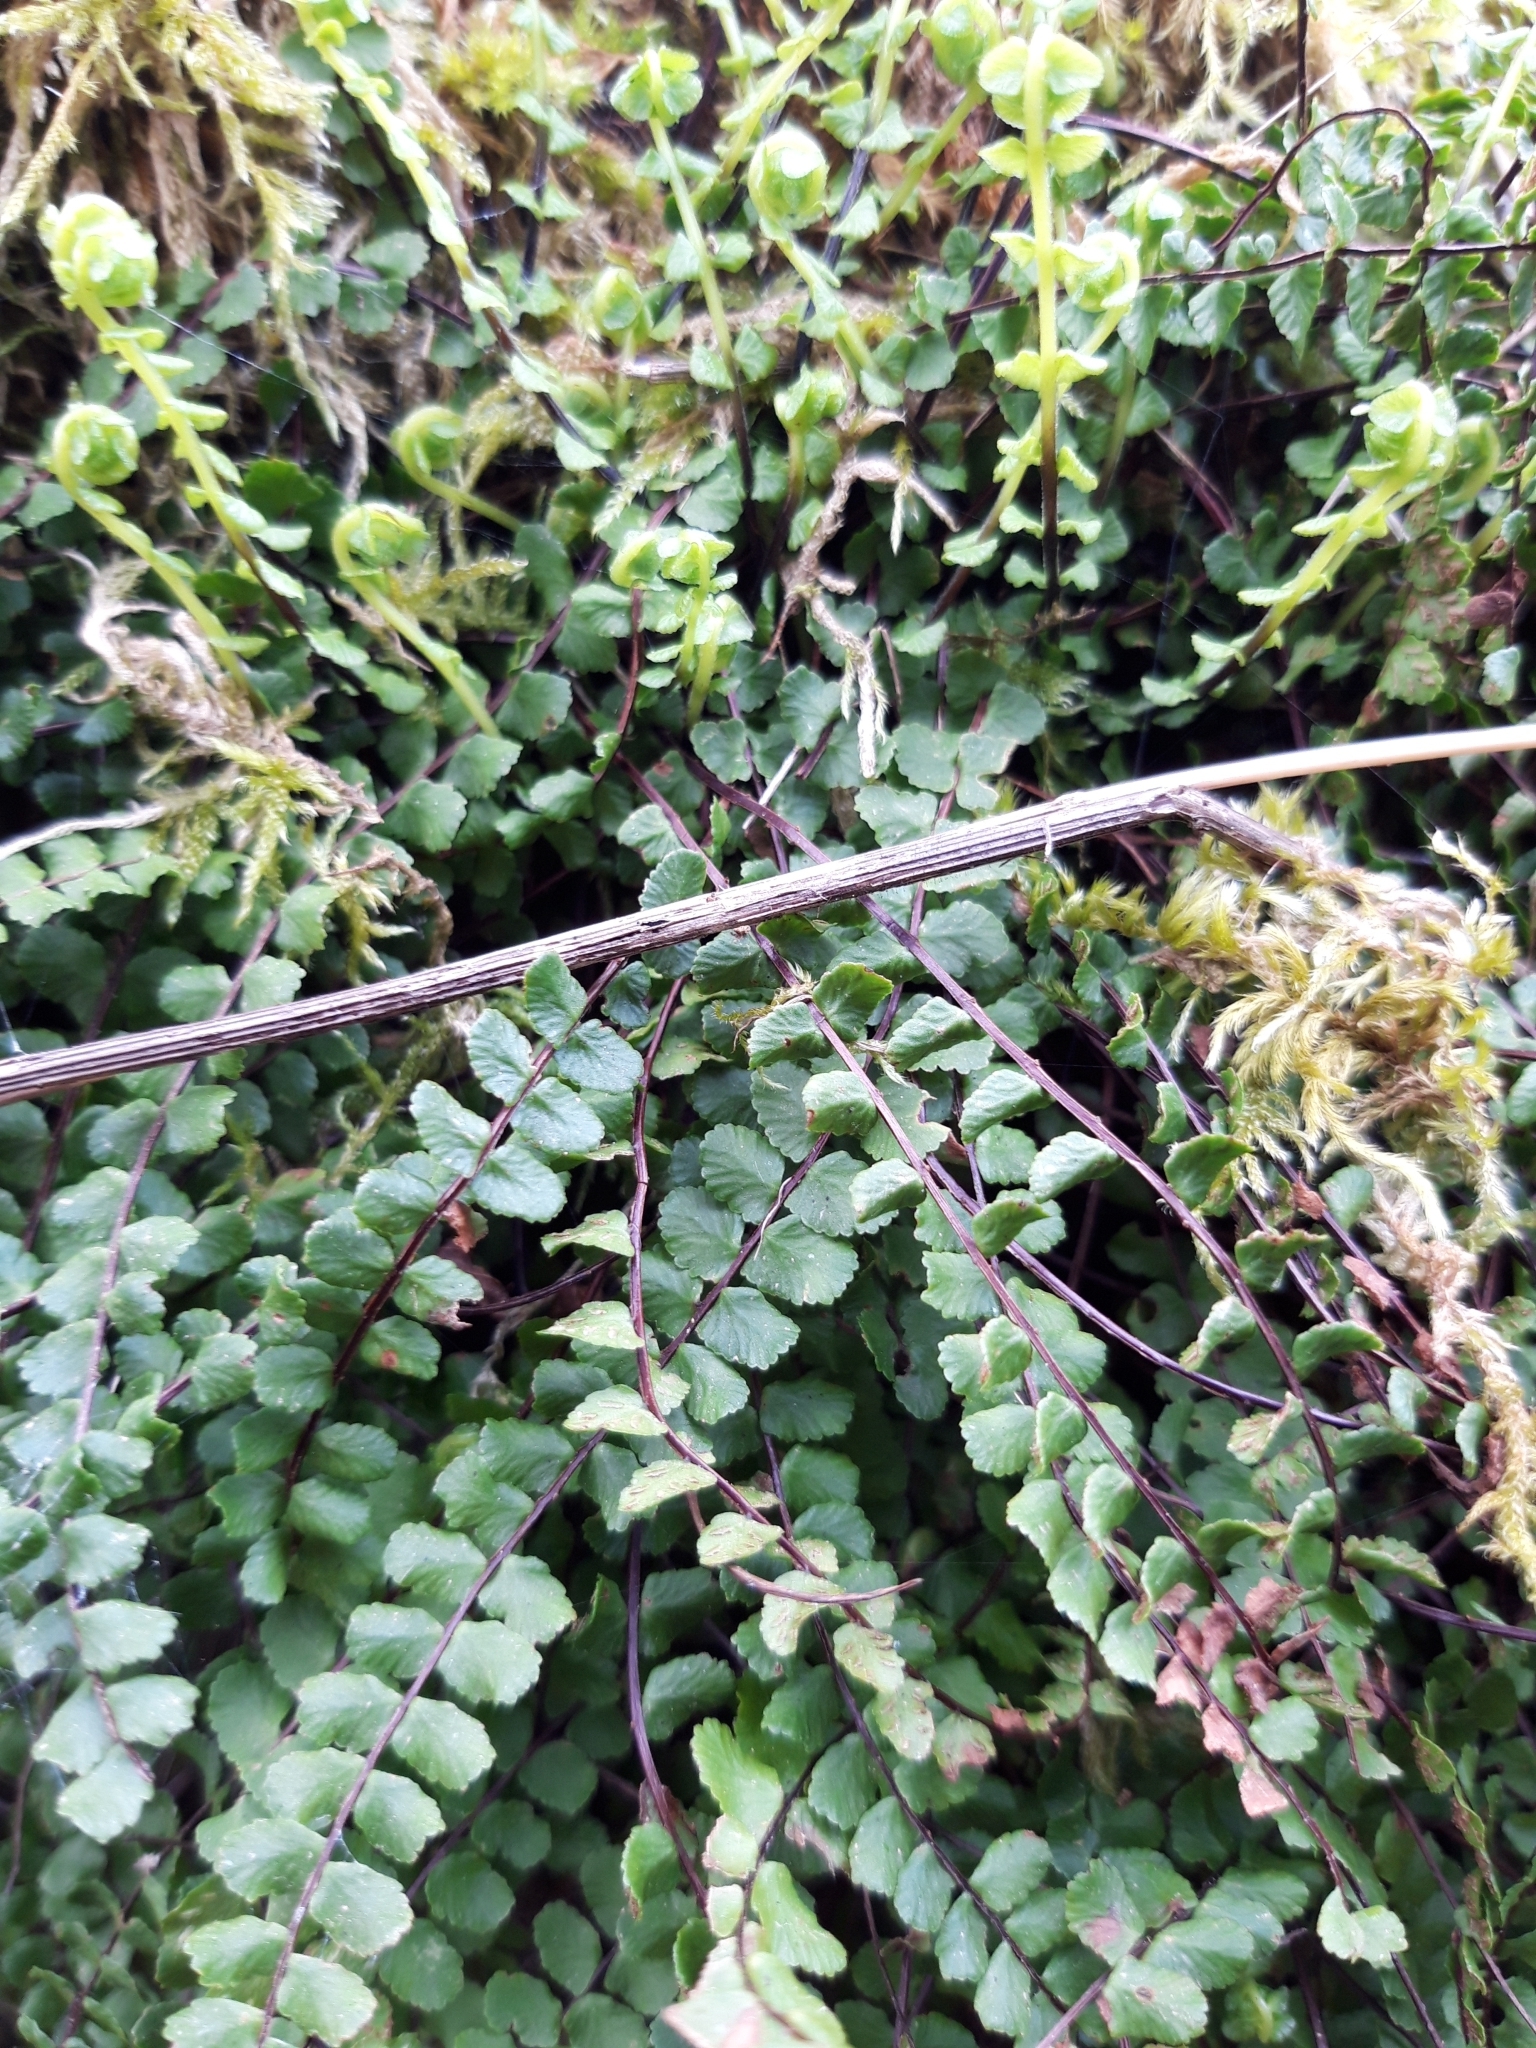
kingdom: Plantae
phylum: Tracheophyta
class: Polypodiopsida
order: Polypodiales
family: Aspleniaceae
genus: Asplenium
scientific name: Asplenium trichomanes
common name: Maidenhair spleenwort
